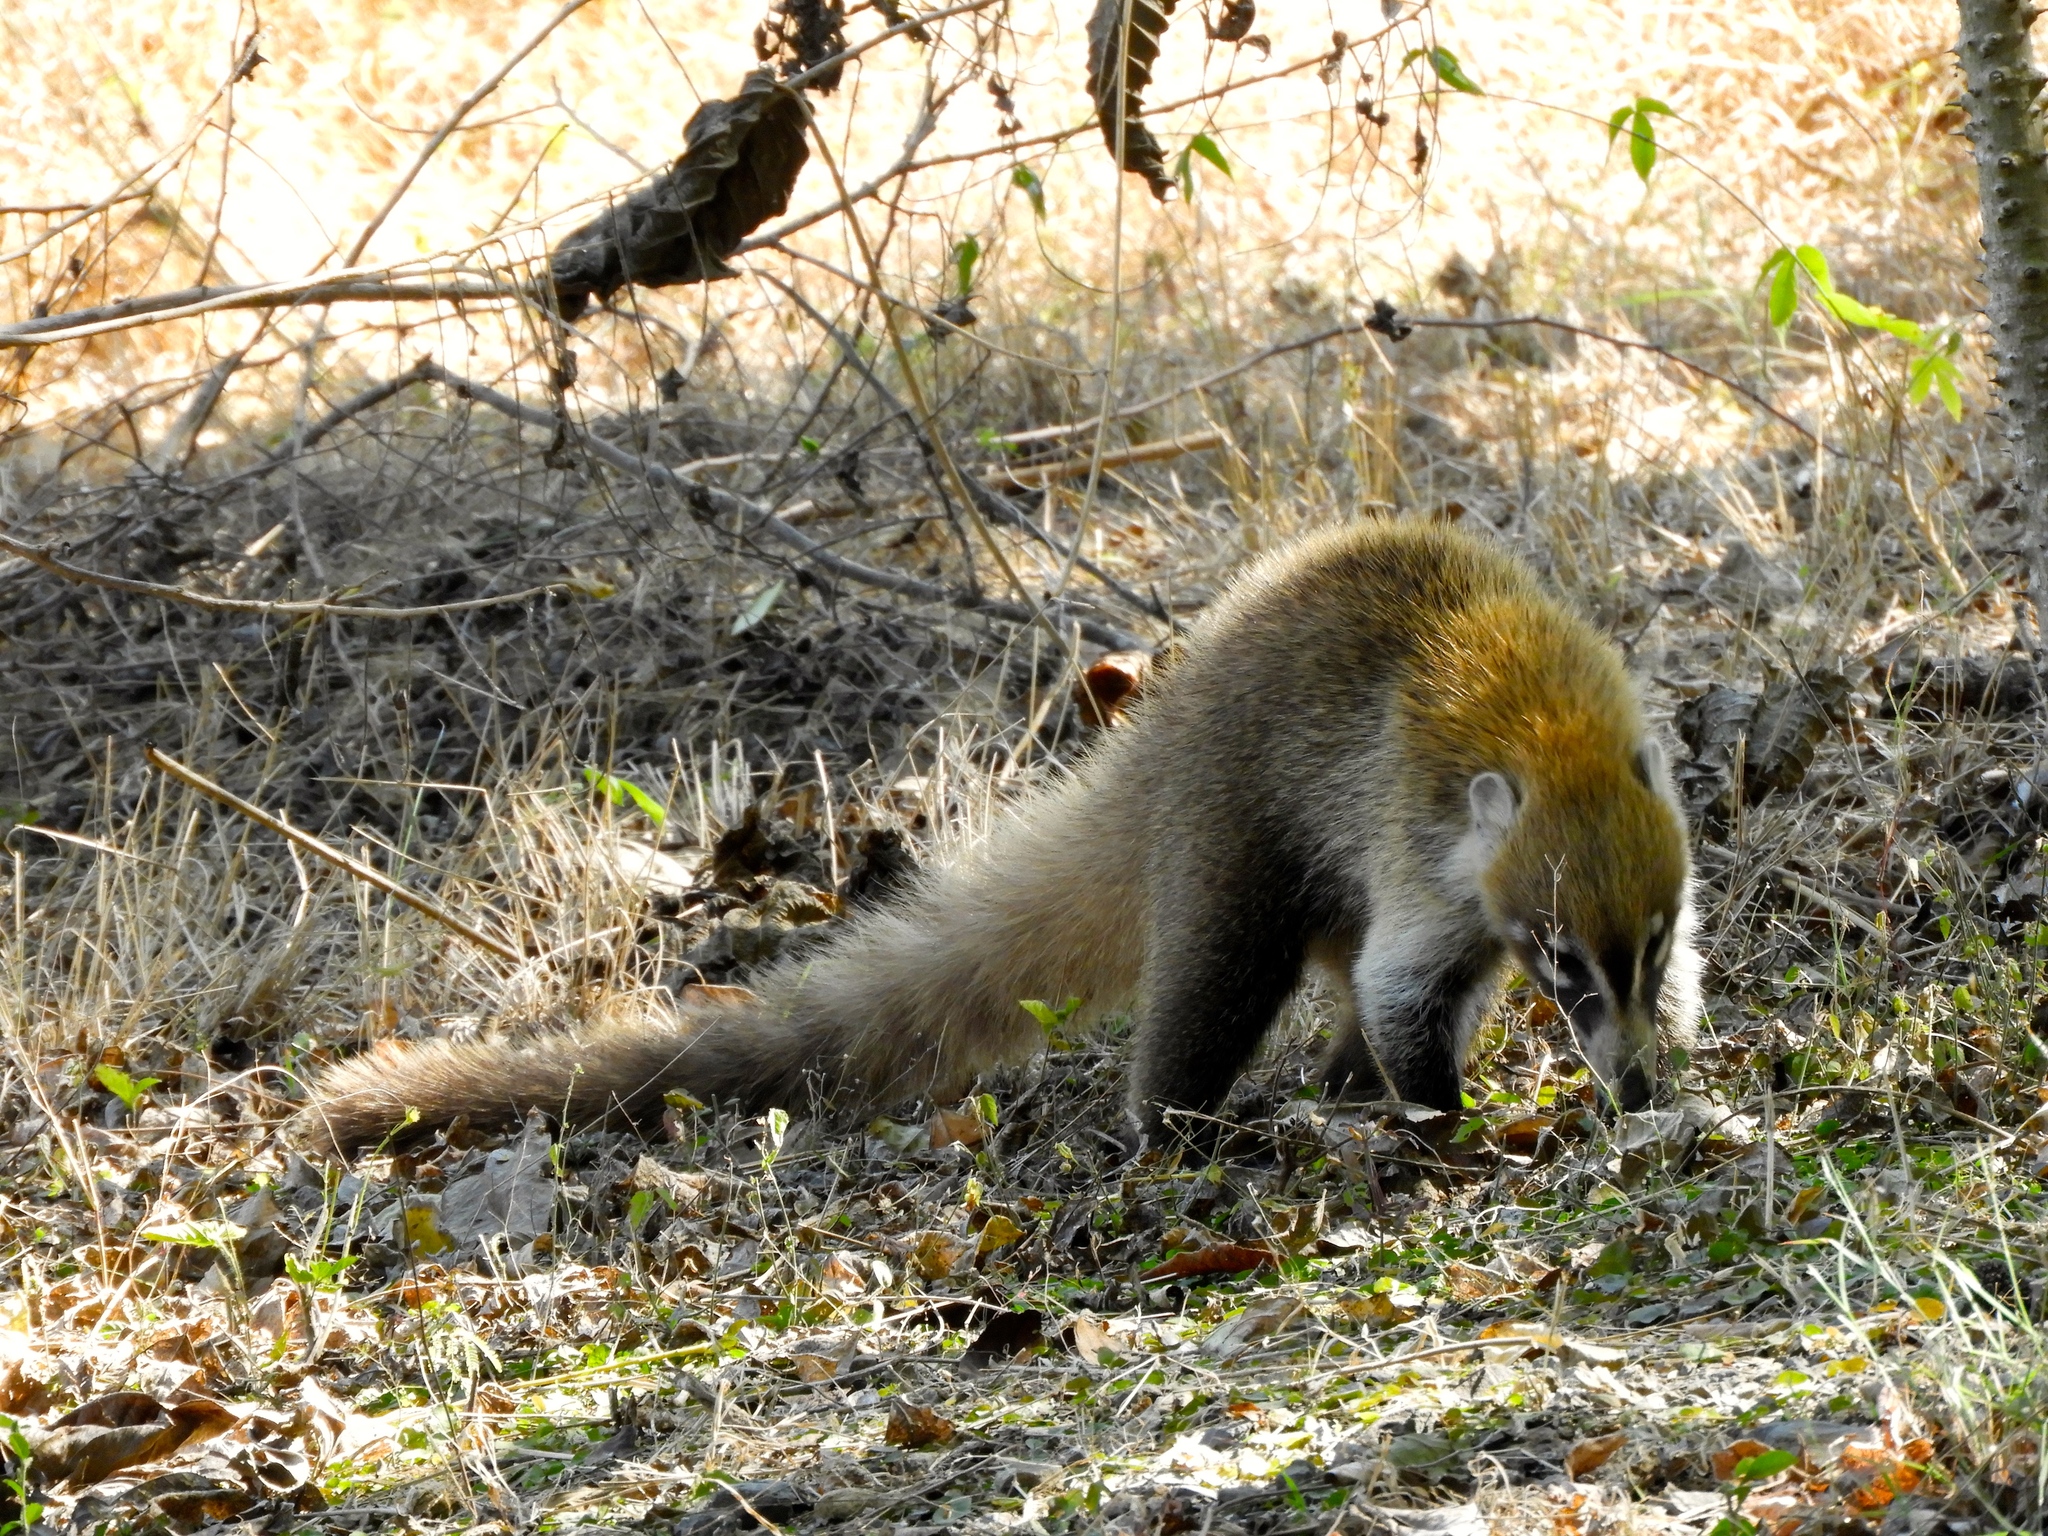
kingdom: Animalia
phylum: Chordata
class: Mammalia
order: Carnivora
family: Procyonidae
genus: Nasua
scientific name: Nasua narica
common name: White-nosed coati
